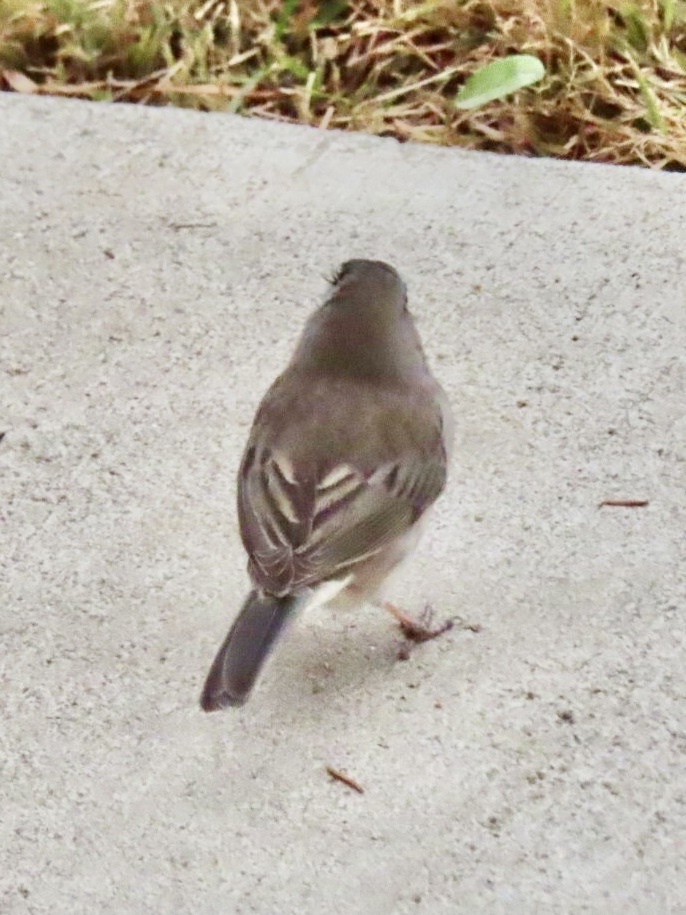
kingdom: Animalia
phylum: Chordata
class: Aves
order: Passeriformes
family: Passerellidae
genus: Junco
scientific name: Junco hyemalis
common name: Dark-eyed junco
